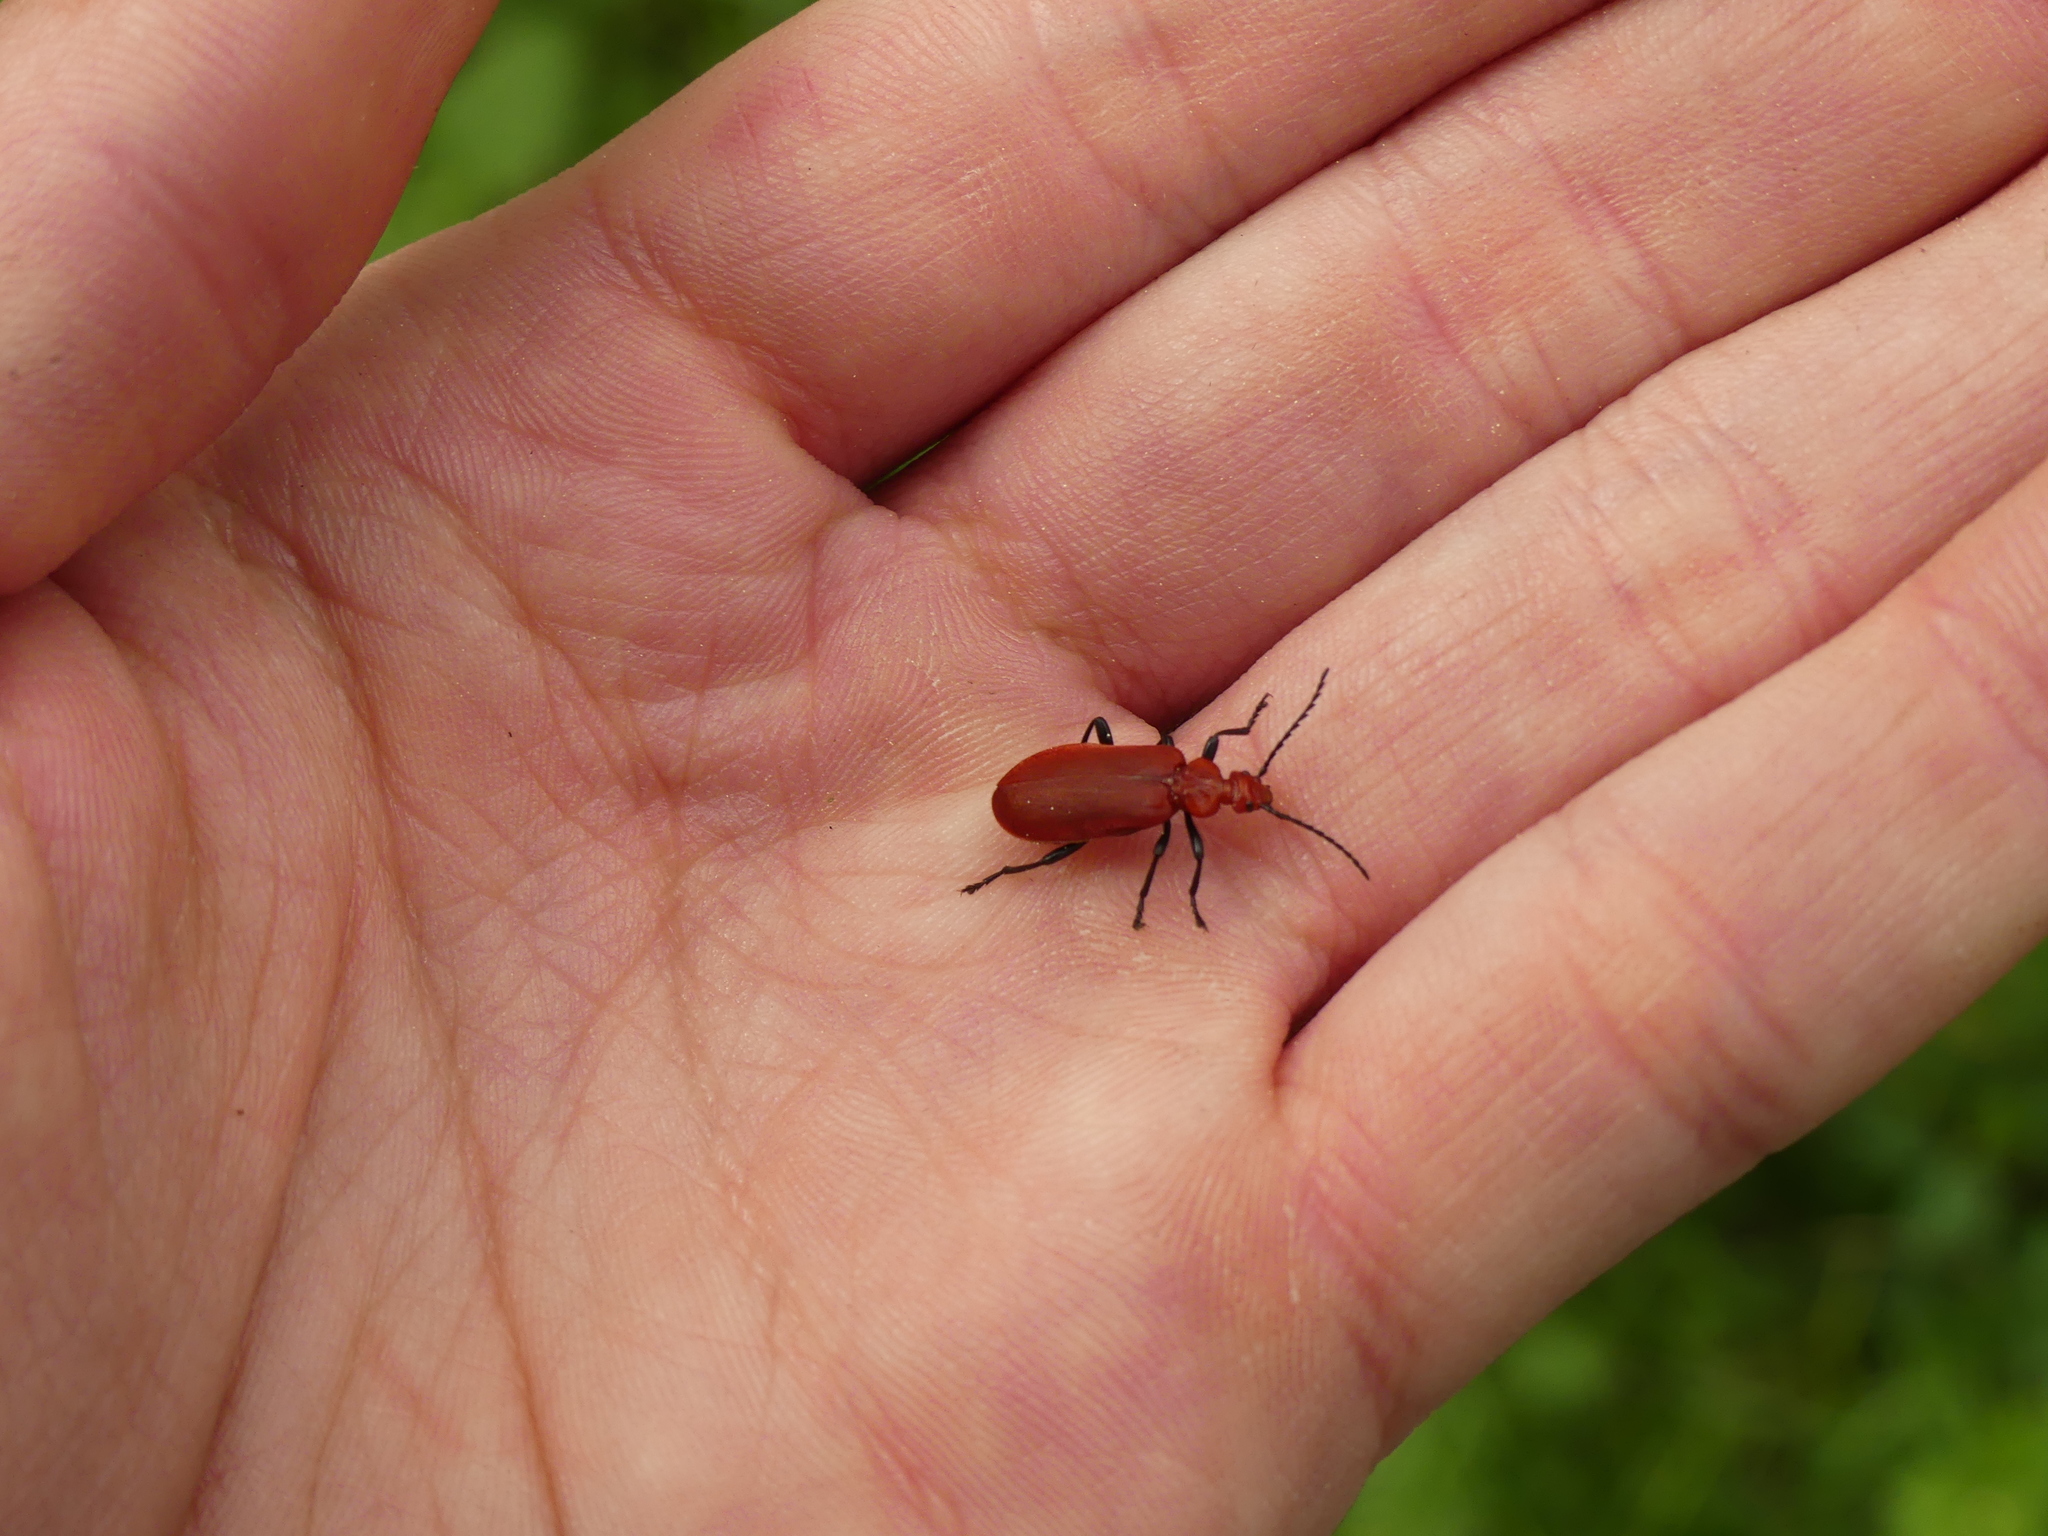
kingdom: Animalia
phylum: Arthropoda
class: Insecta
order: Coleoptera
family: Pyrochroidae
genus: Pyrochroa
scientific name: Pyrochroa serraticornis
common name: Red-headed cardinal beetle
